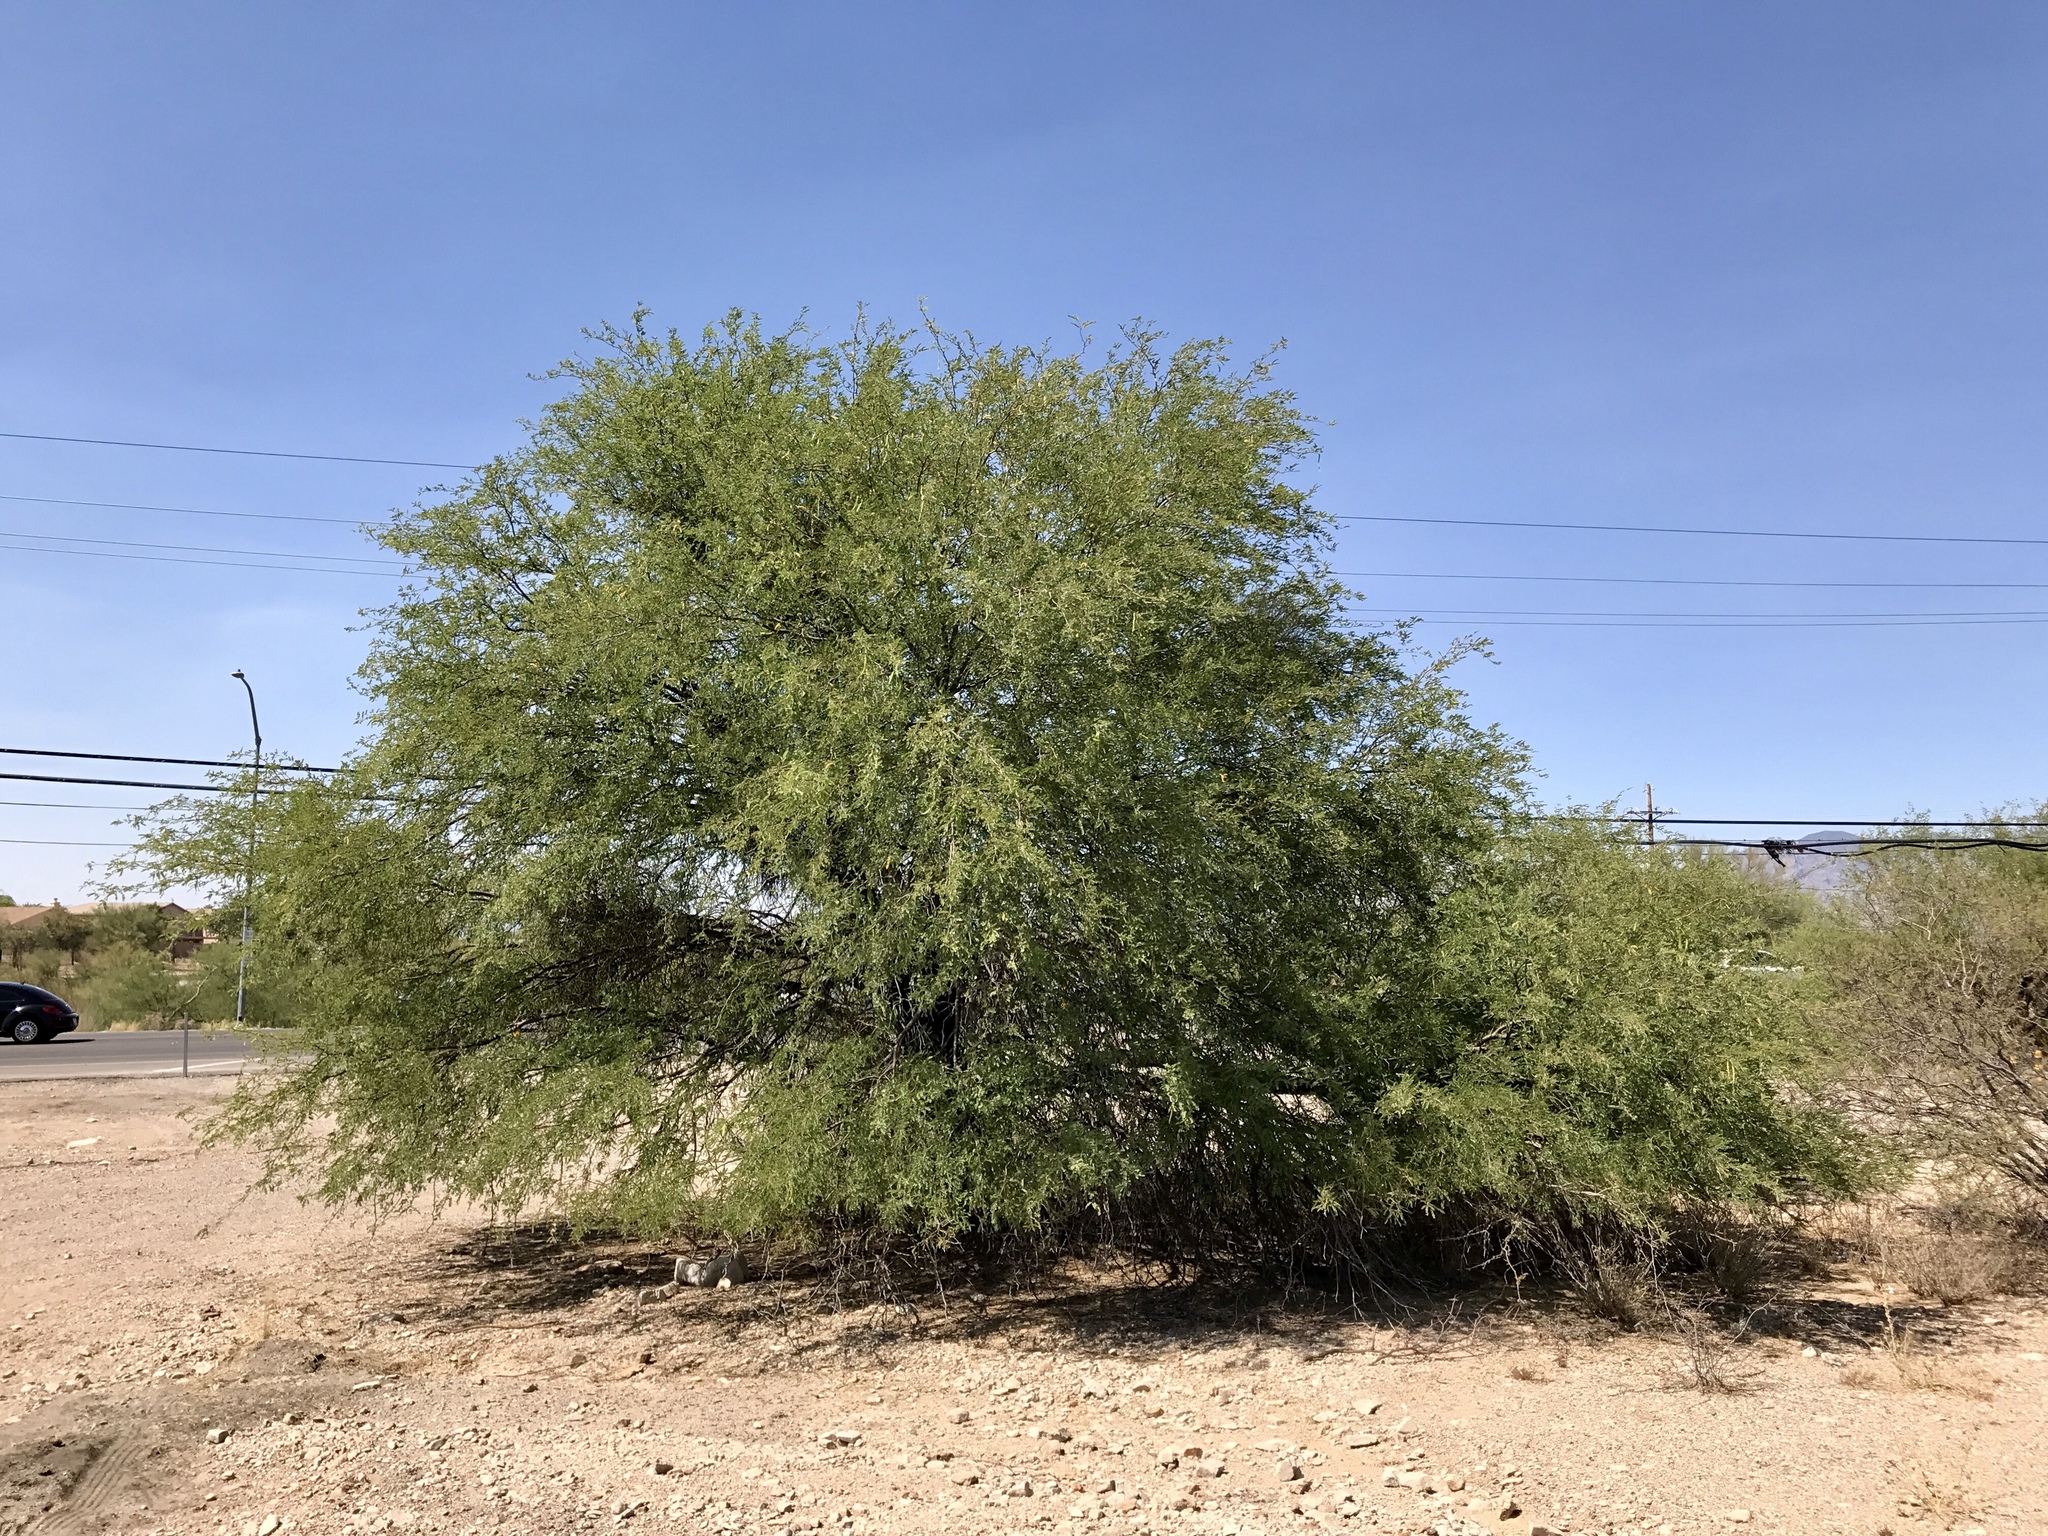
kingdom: Plantae
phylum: Tracheophyta
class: Magnoliopsida
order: Fabales
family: Fabaceae
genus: Prosopis
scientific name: Prosopis velutina
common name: Velvet mesquite
